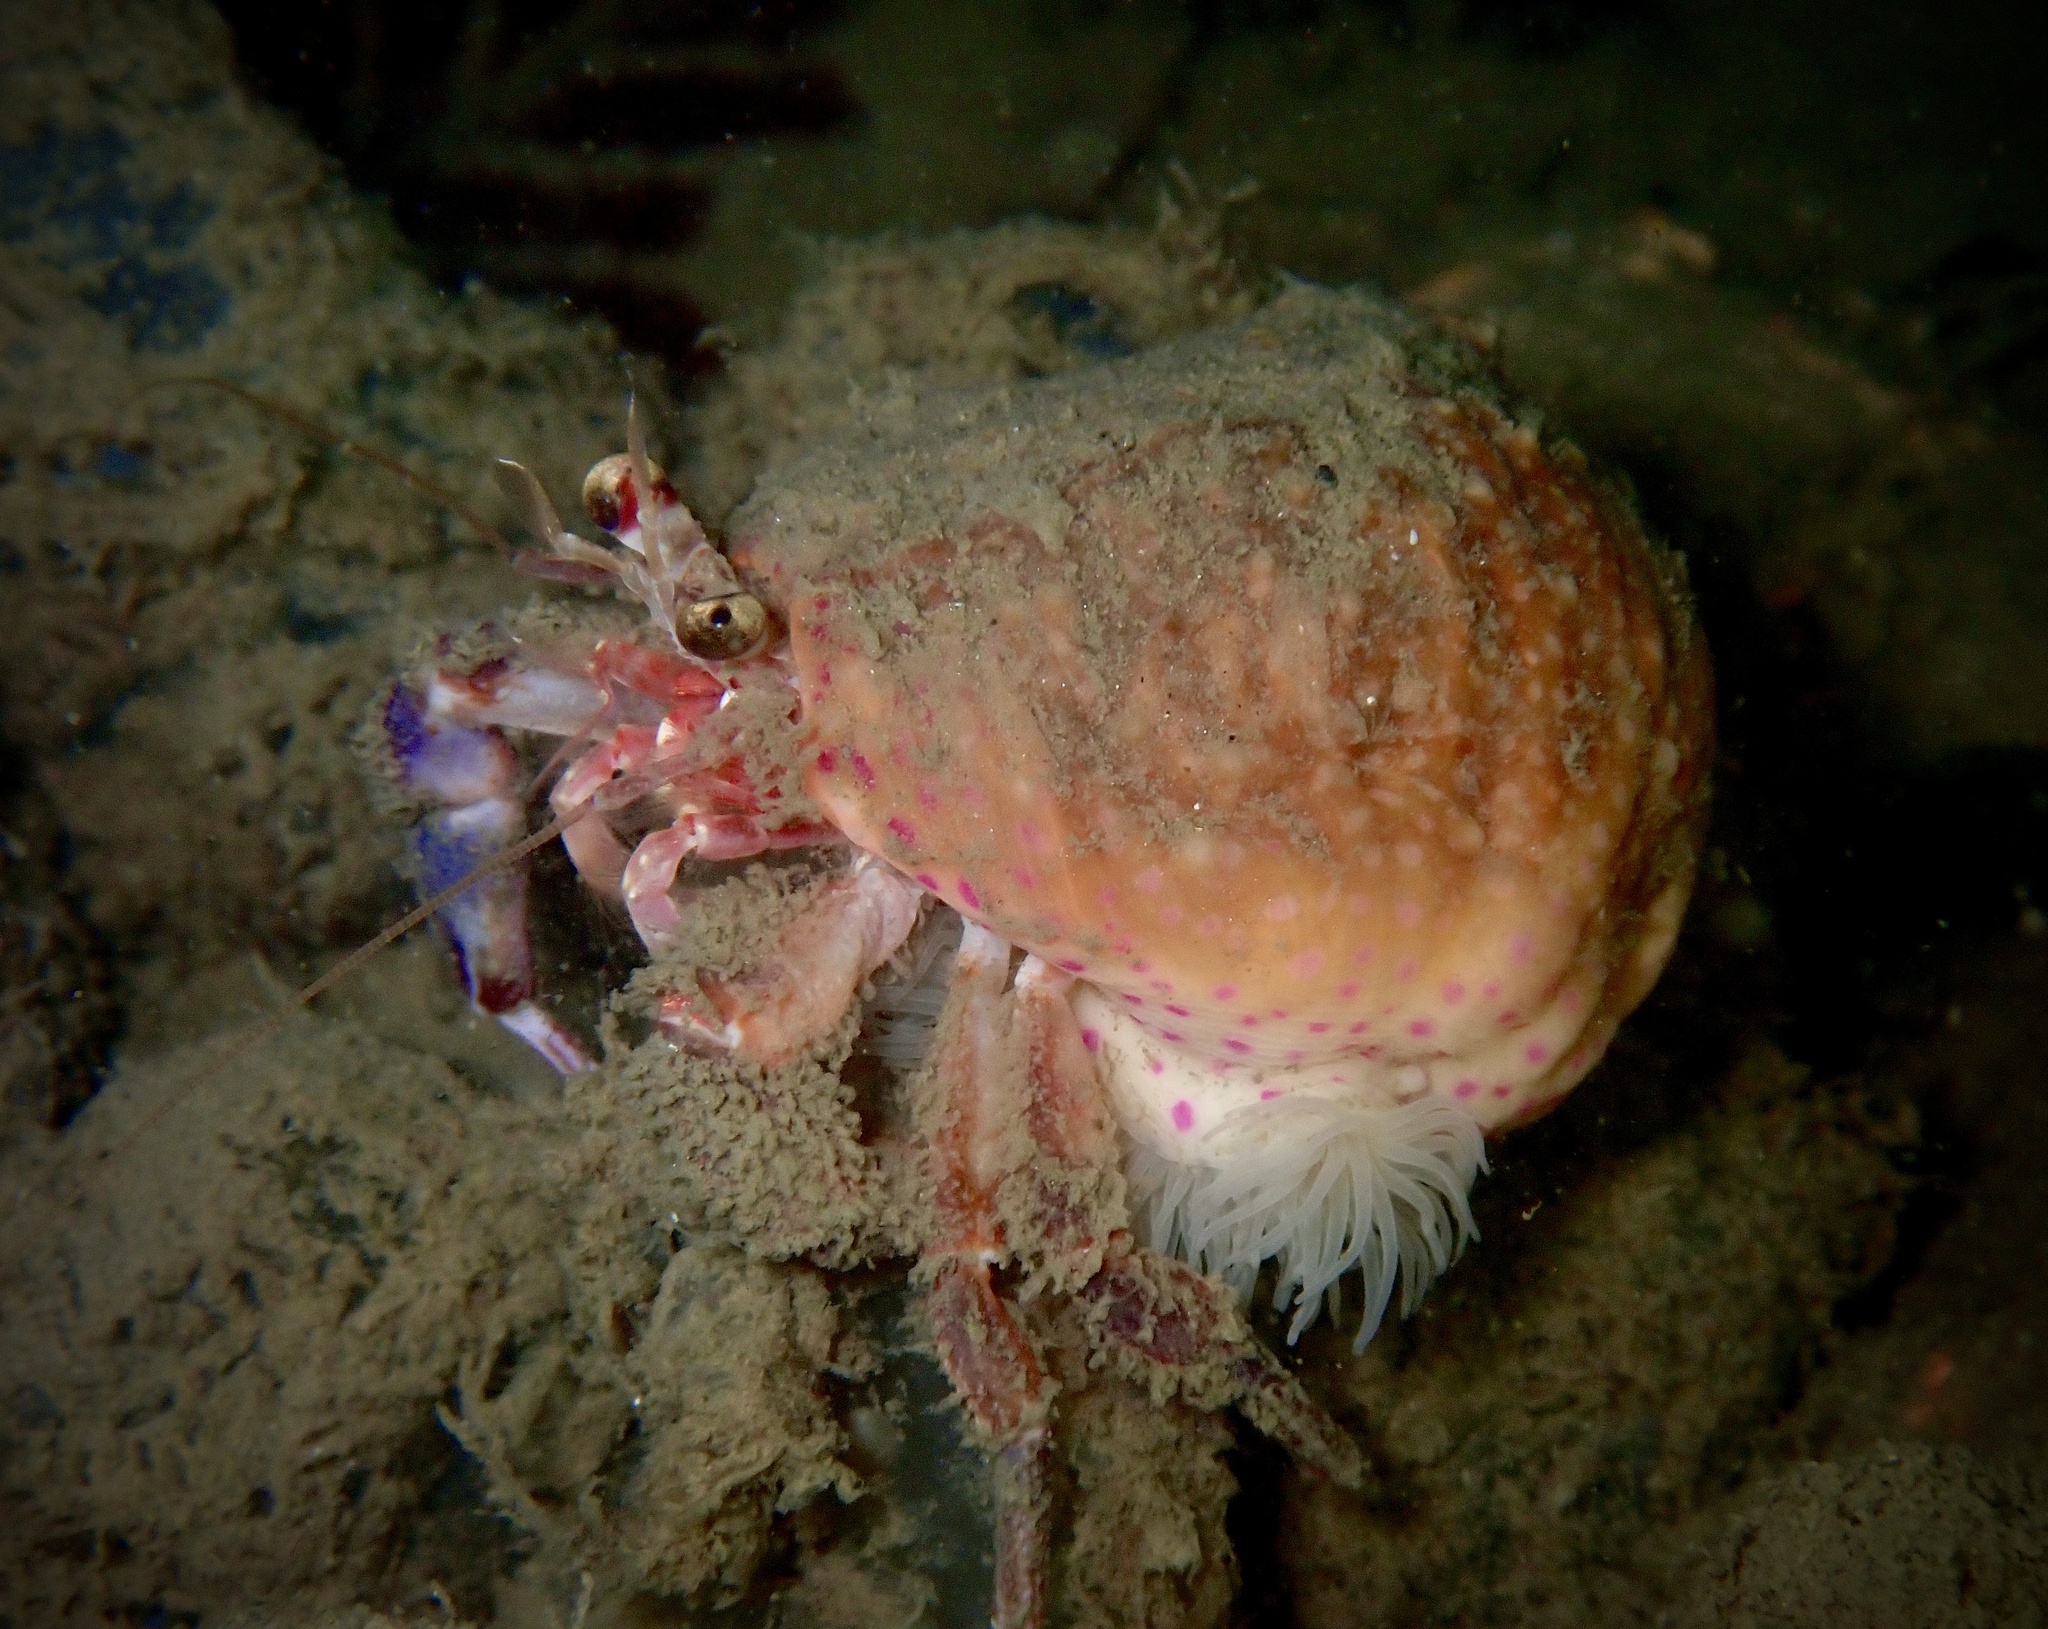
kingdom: Animalia
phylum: Arthropoda
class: Malacostraca
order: Decapoda
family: Paguridae
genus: Pagurus
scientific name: Pagurus prideaux
